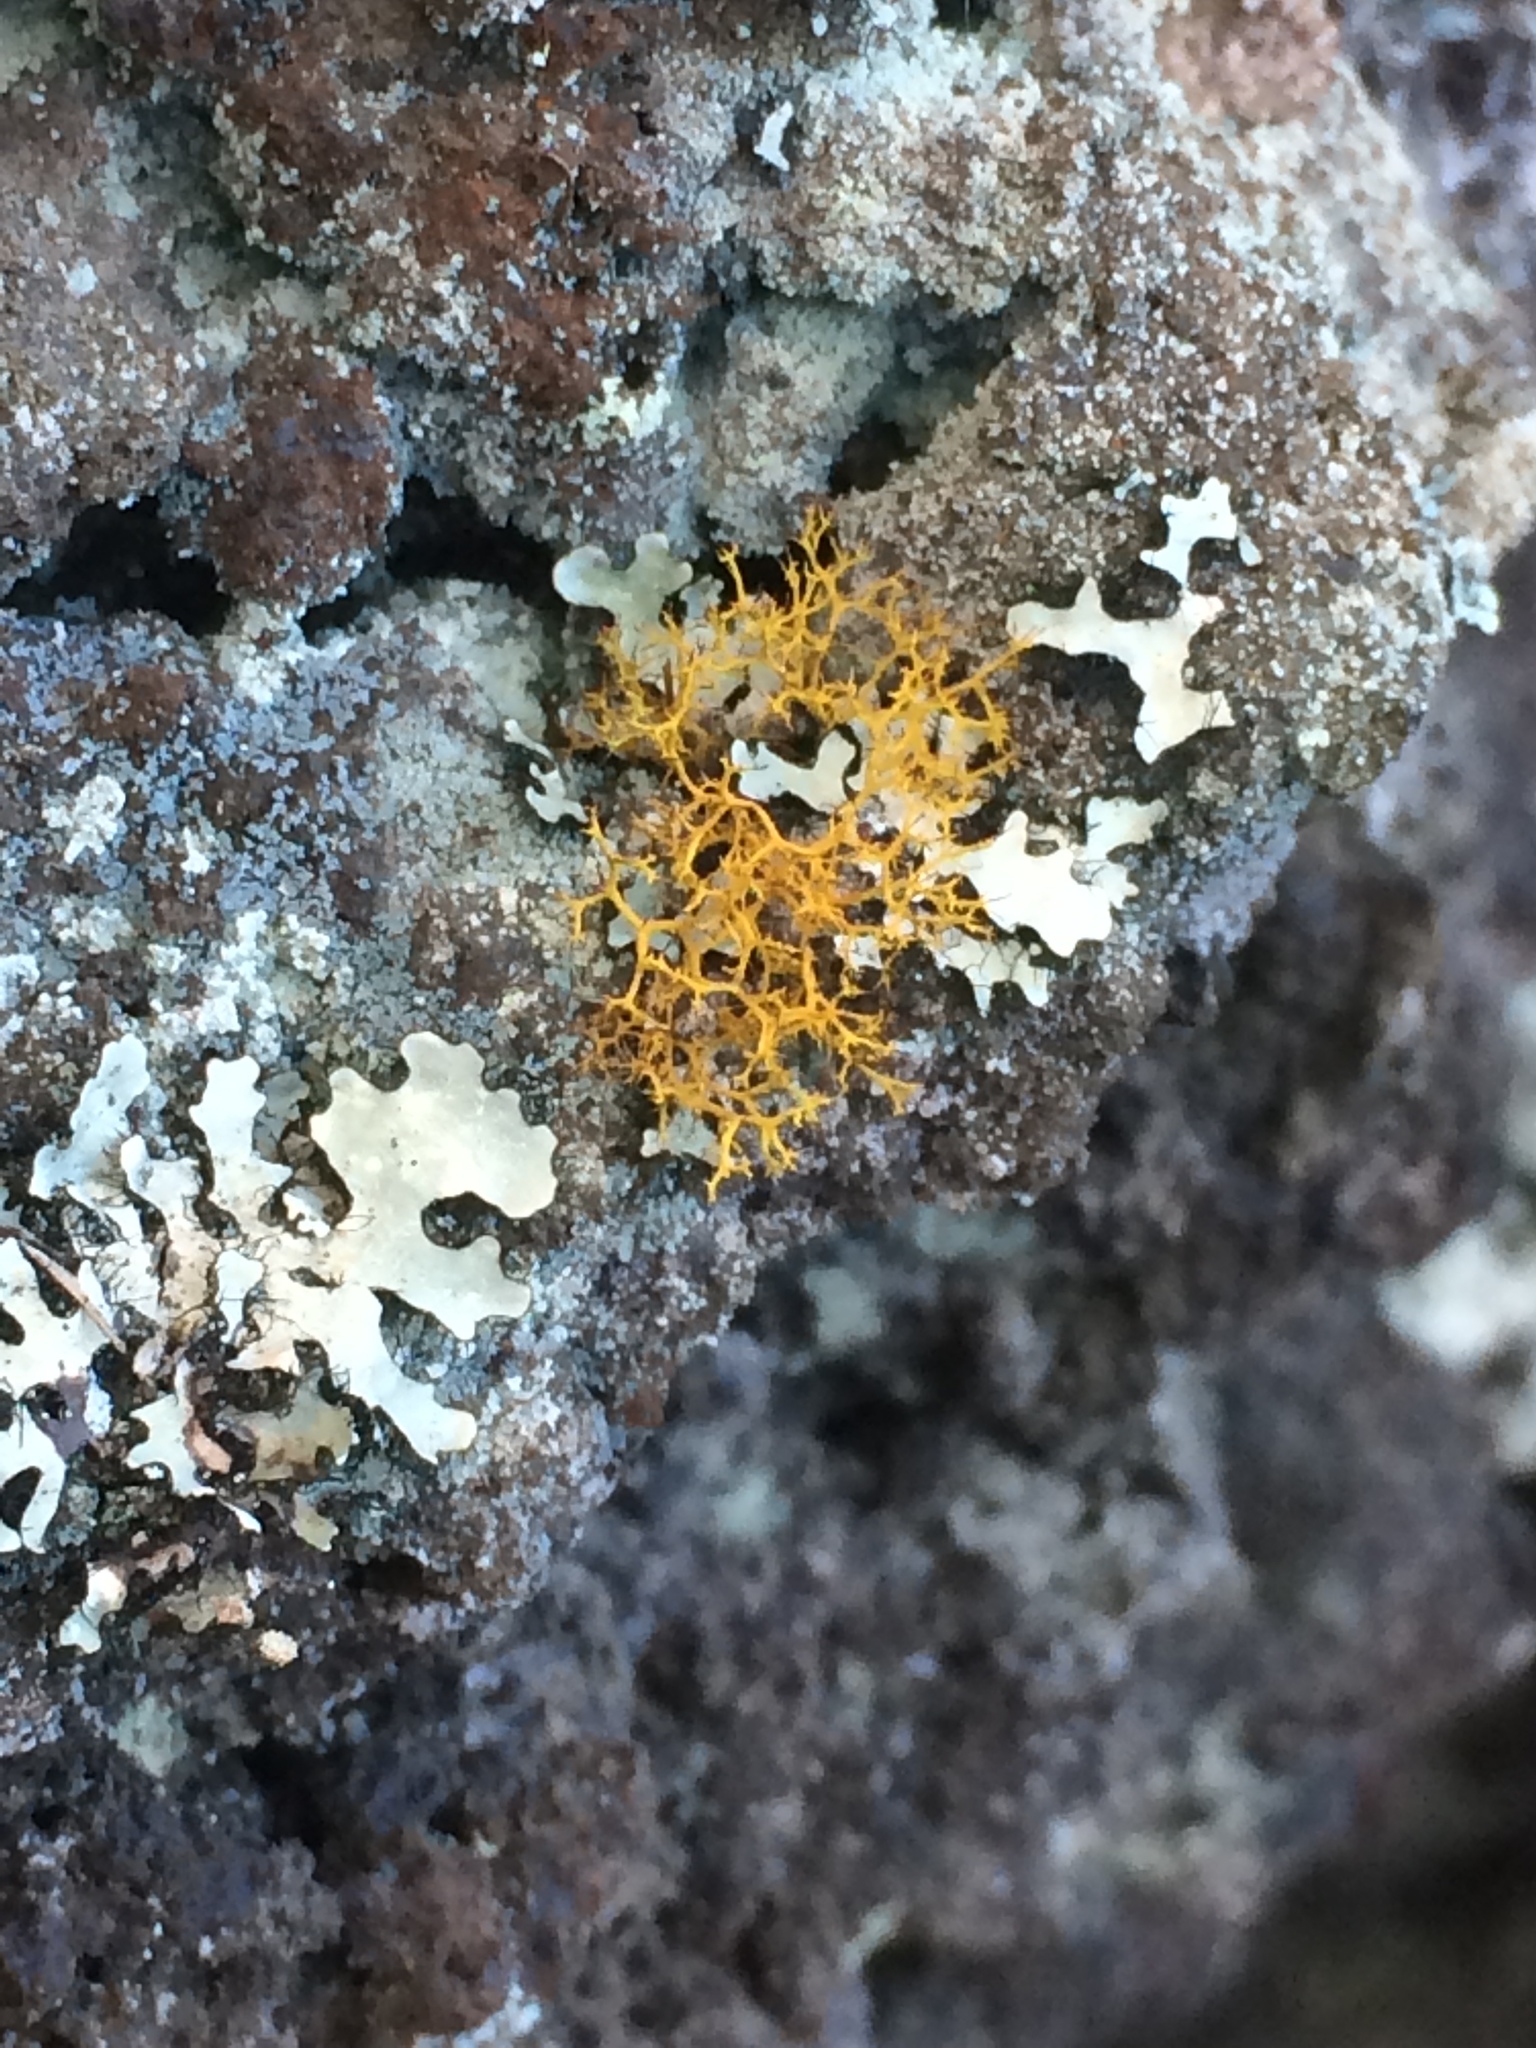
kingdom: Fungi
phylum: Ascomycota
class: Lecanoromycetes
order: Teloschistales
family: Teloschistaceae
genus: Teloschistes
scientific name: Teloschistes flavicans
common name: Golden hair-lichen
